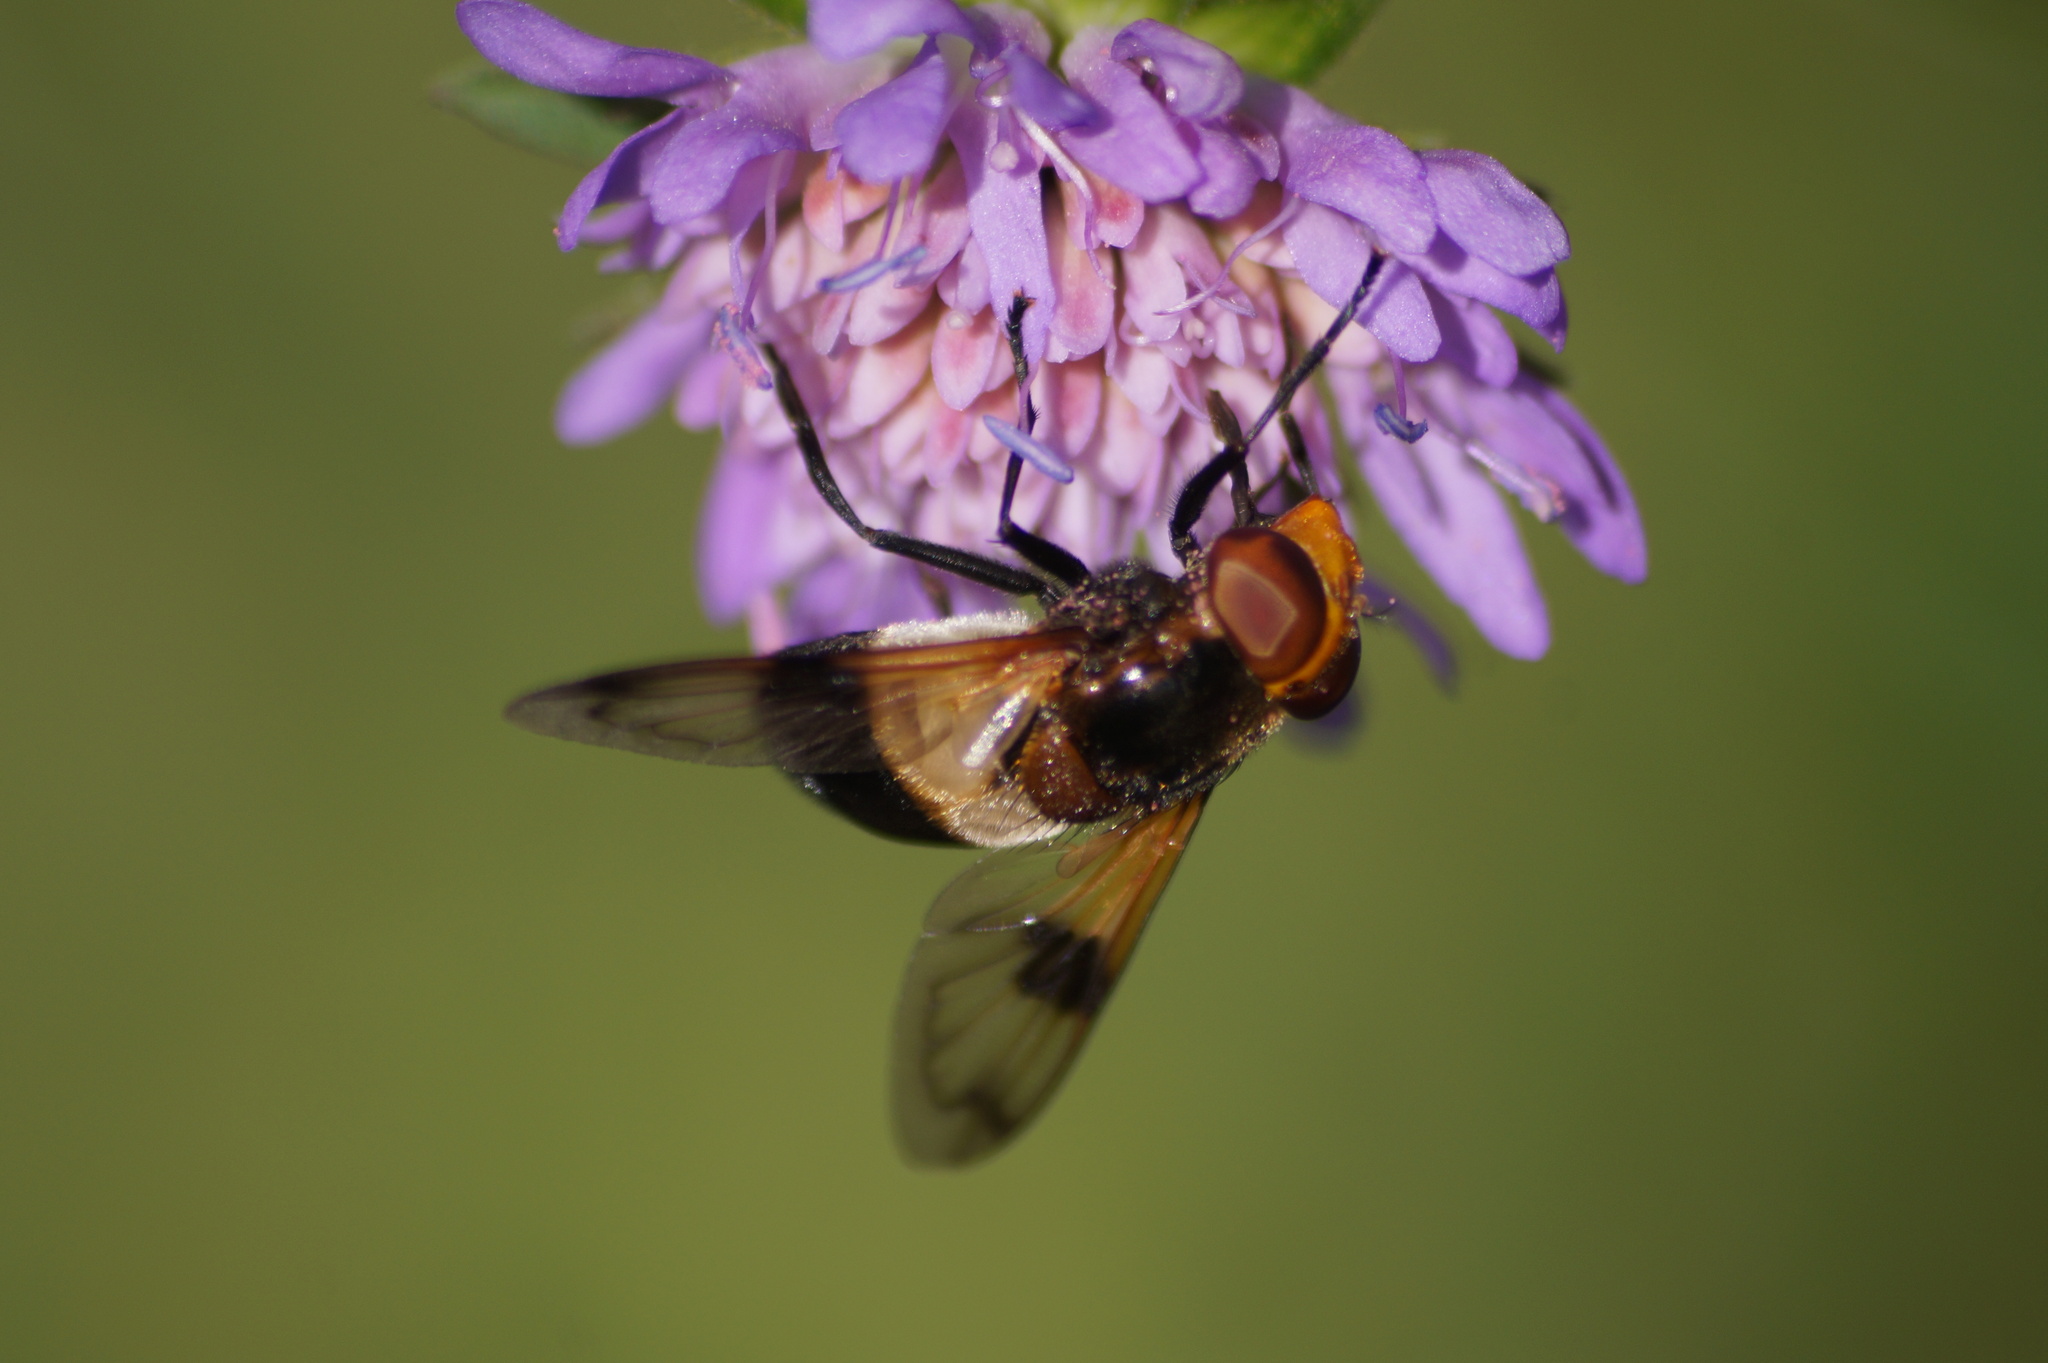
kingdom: Animalia
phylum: Arthropoda
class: Insecta
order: Diptera
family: Syrphidae
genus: Volucella
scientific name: Volucella pellucens
